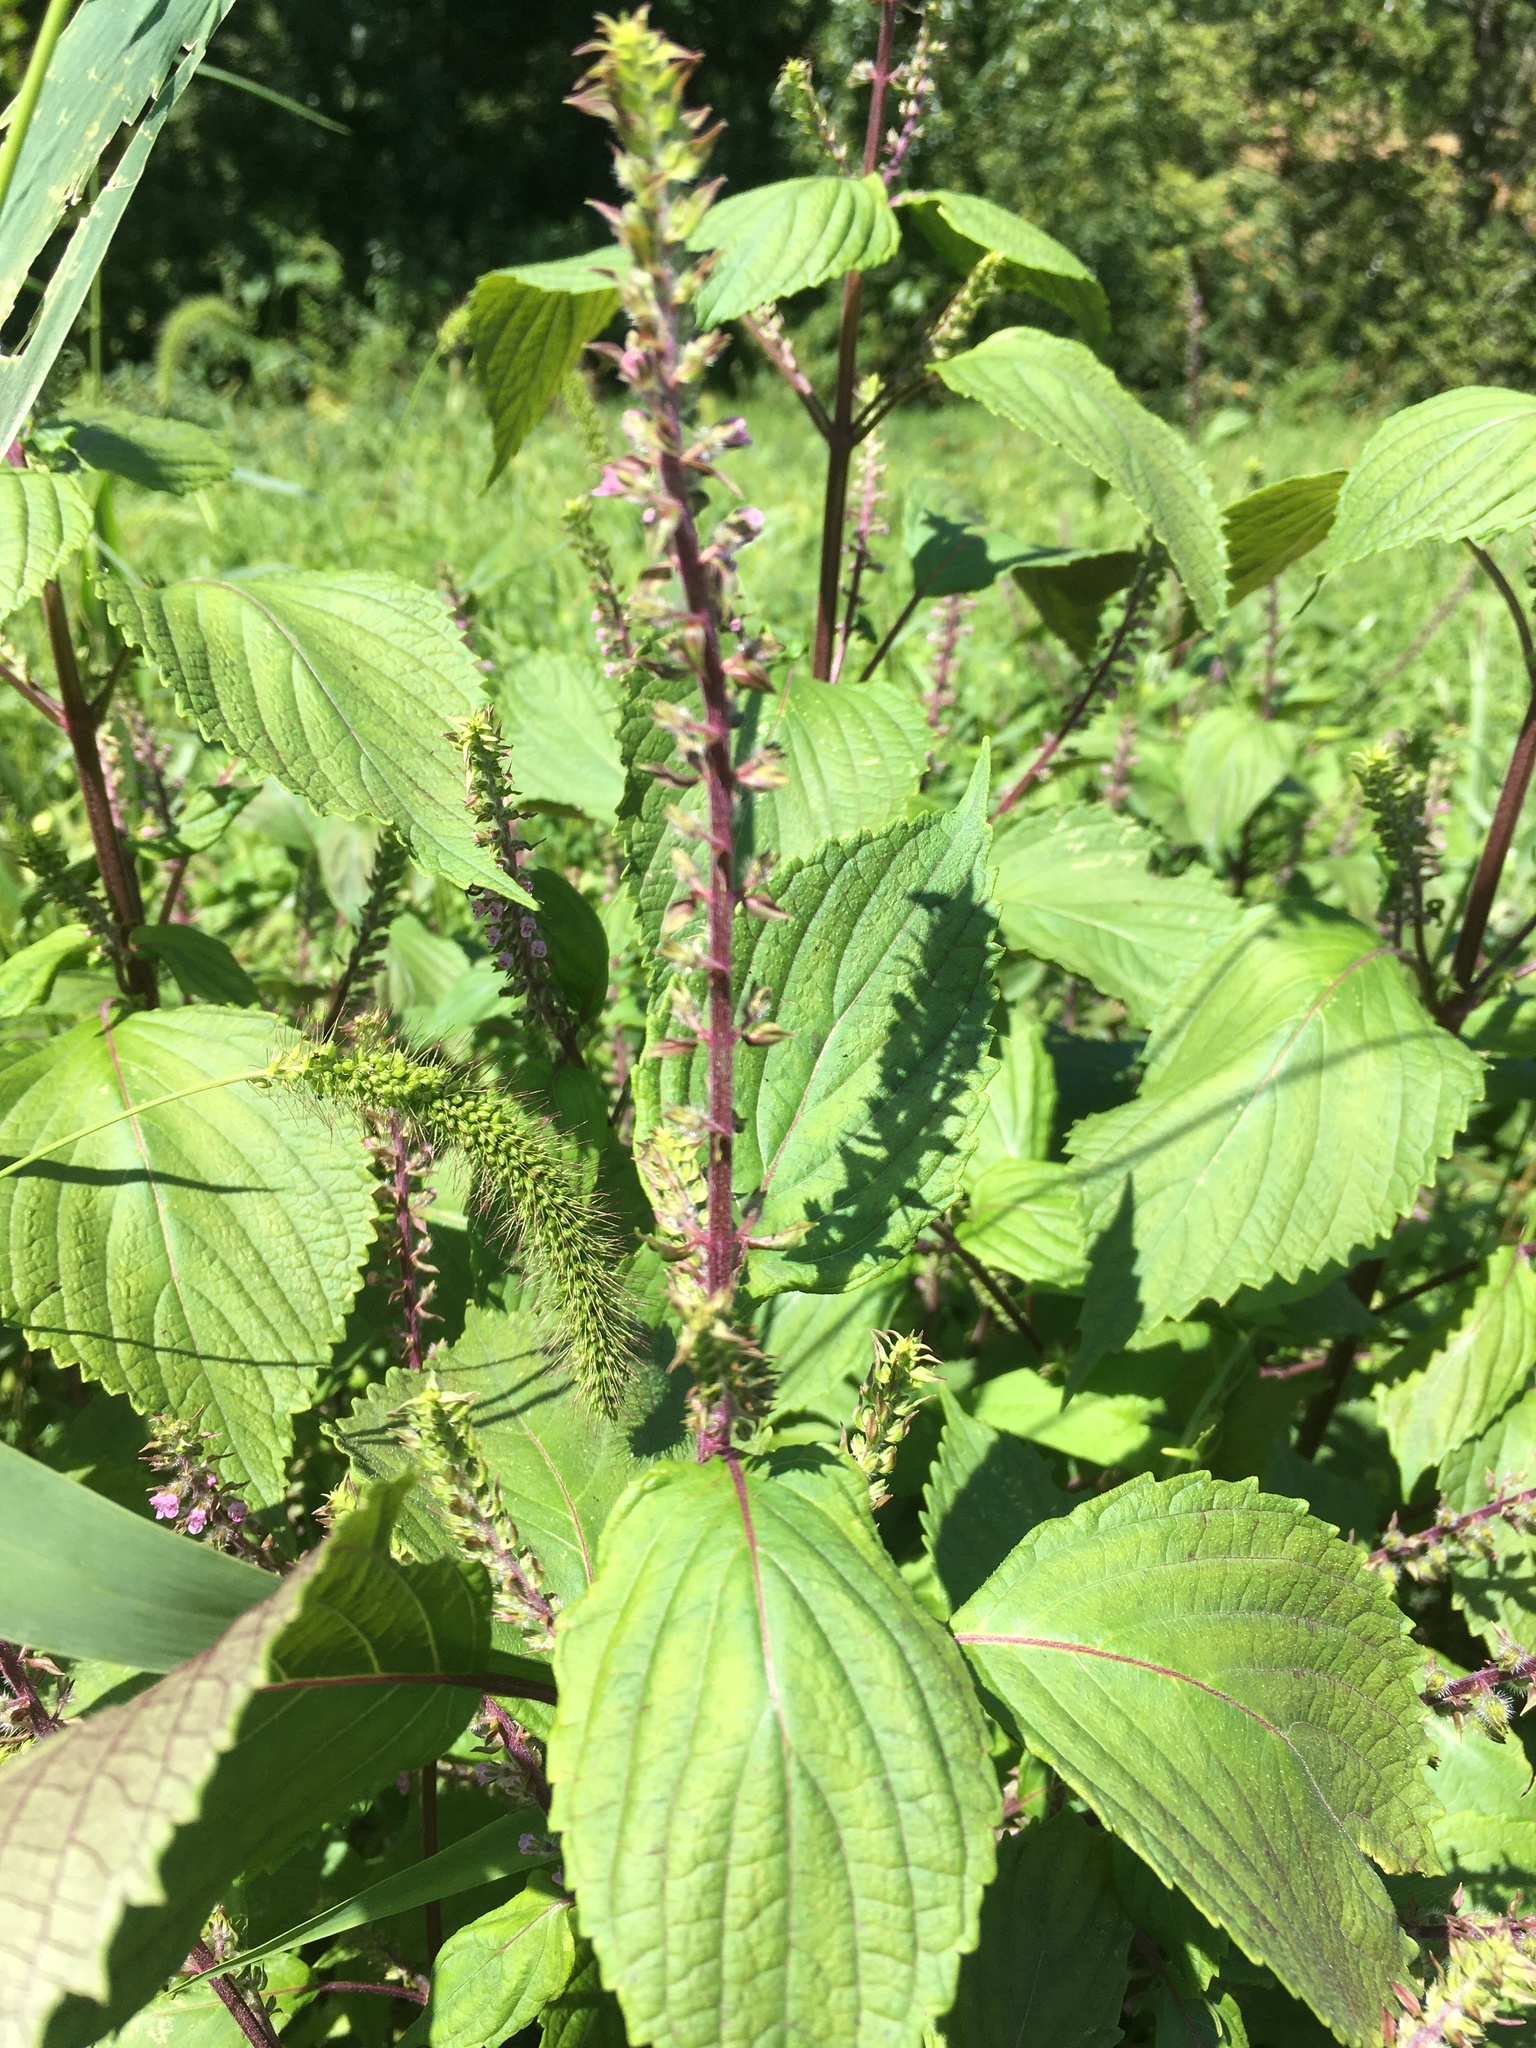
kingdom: Plantae
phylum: Tracheophyta
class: Magnoliopsida
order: Lamiales
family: Lamiaceae
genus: Perilla
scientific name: Perilla frutescens
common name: Perilla
